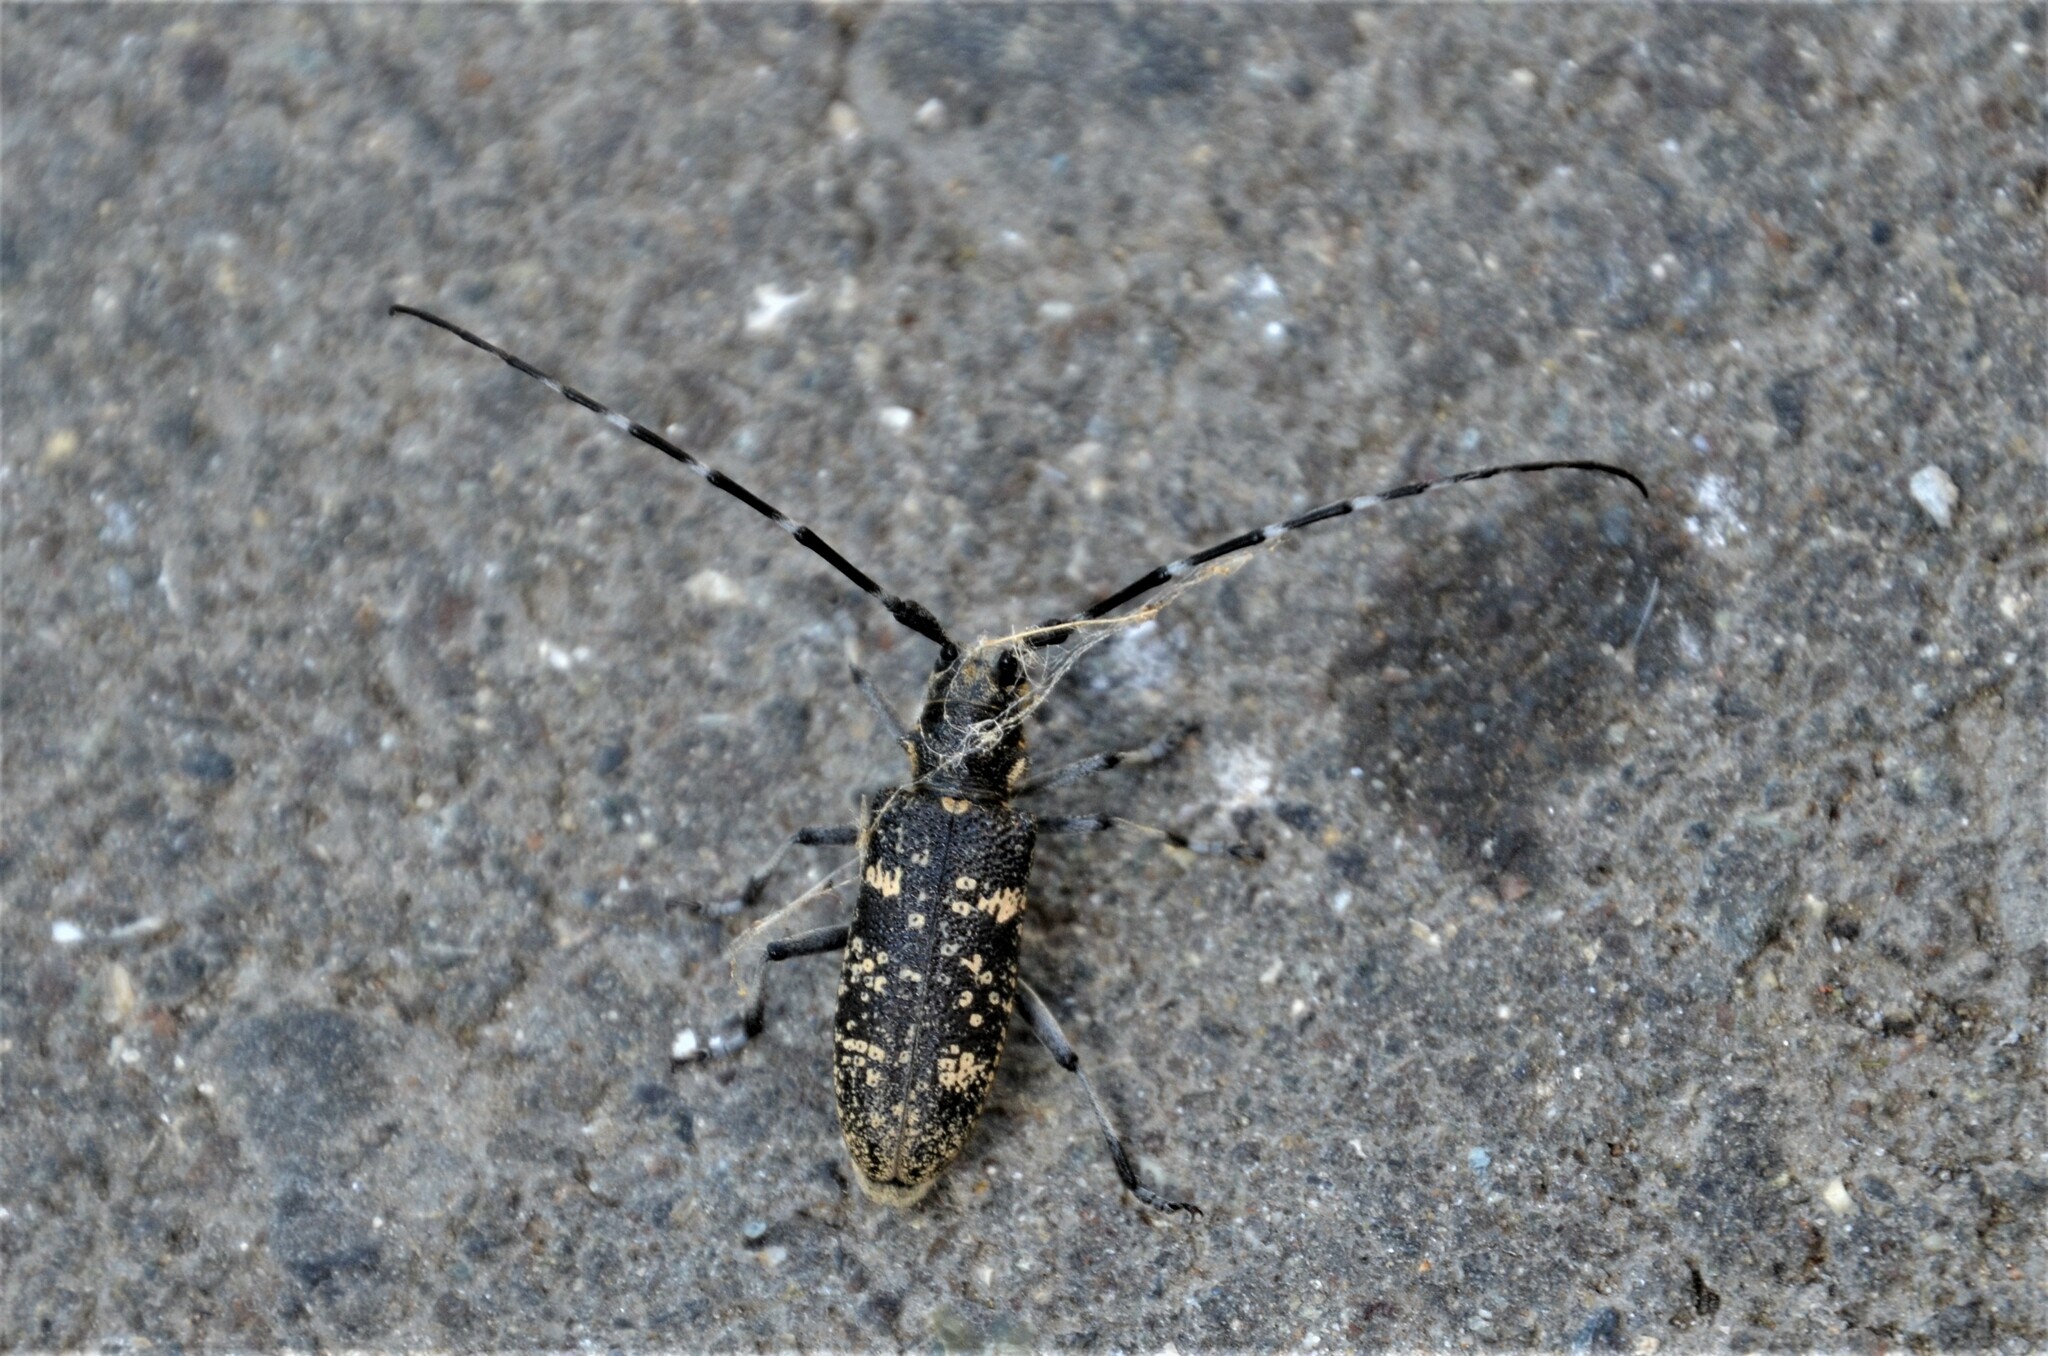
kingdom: Animalia
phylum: Arthropoda
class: Insecta
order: Coleoptera
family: Cerambycidae
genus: Monochamus
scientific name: Monochamus sutor
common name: Pine sawyer
